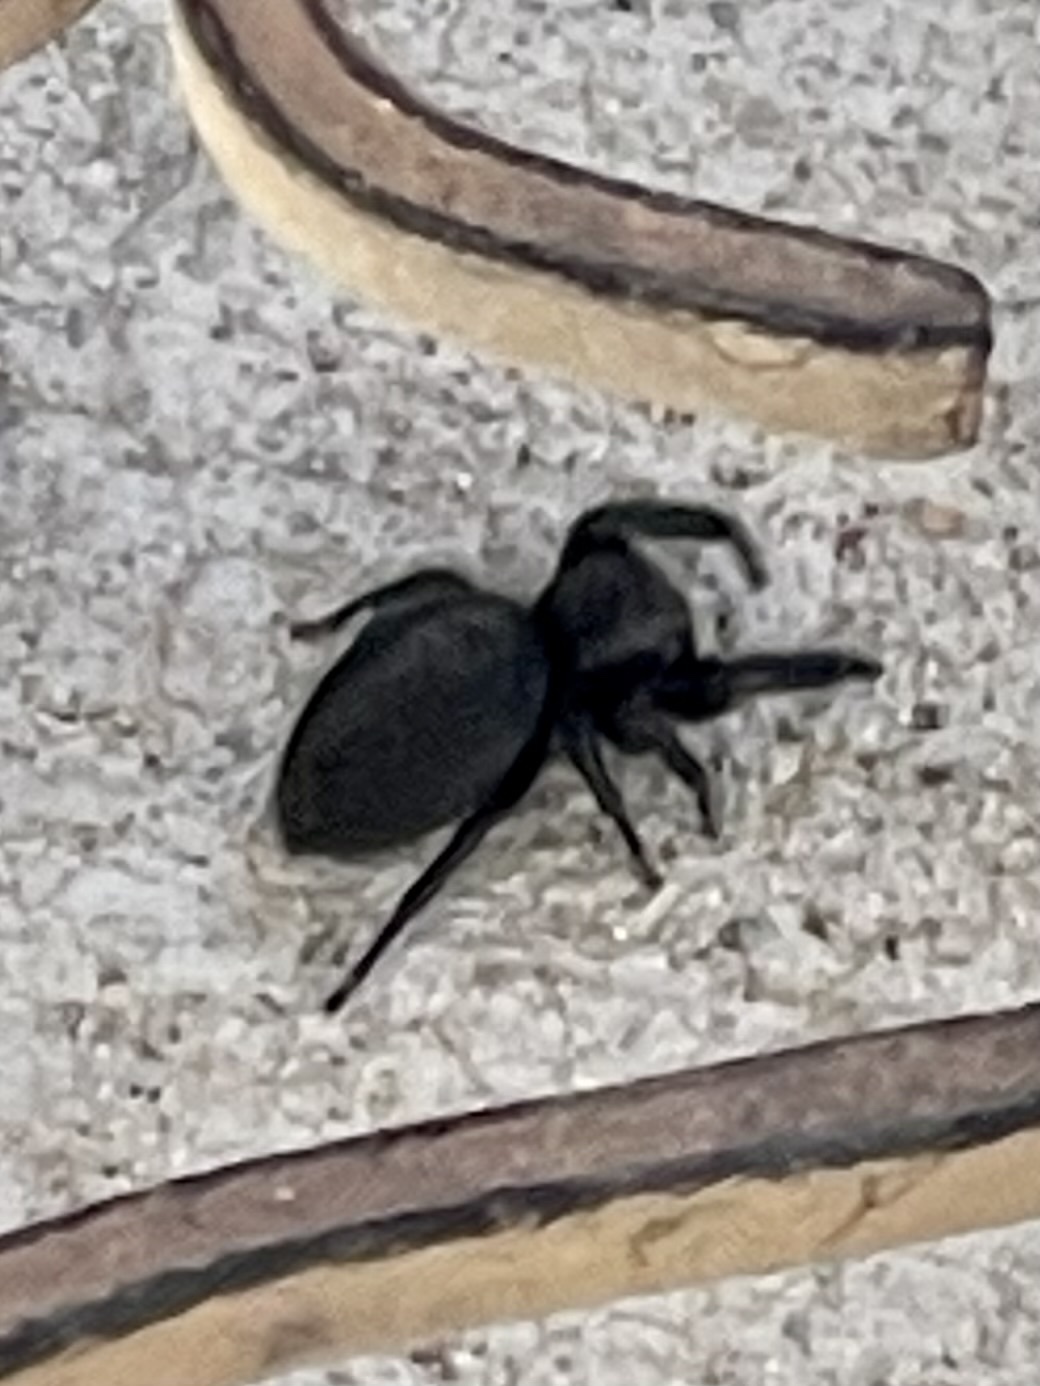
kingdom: Animalia
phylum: Arthropoda
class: Arachnida
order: Araneae
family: Salticidae
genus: Phidippus
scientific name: Phidippus octopunctatus
